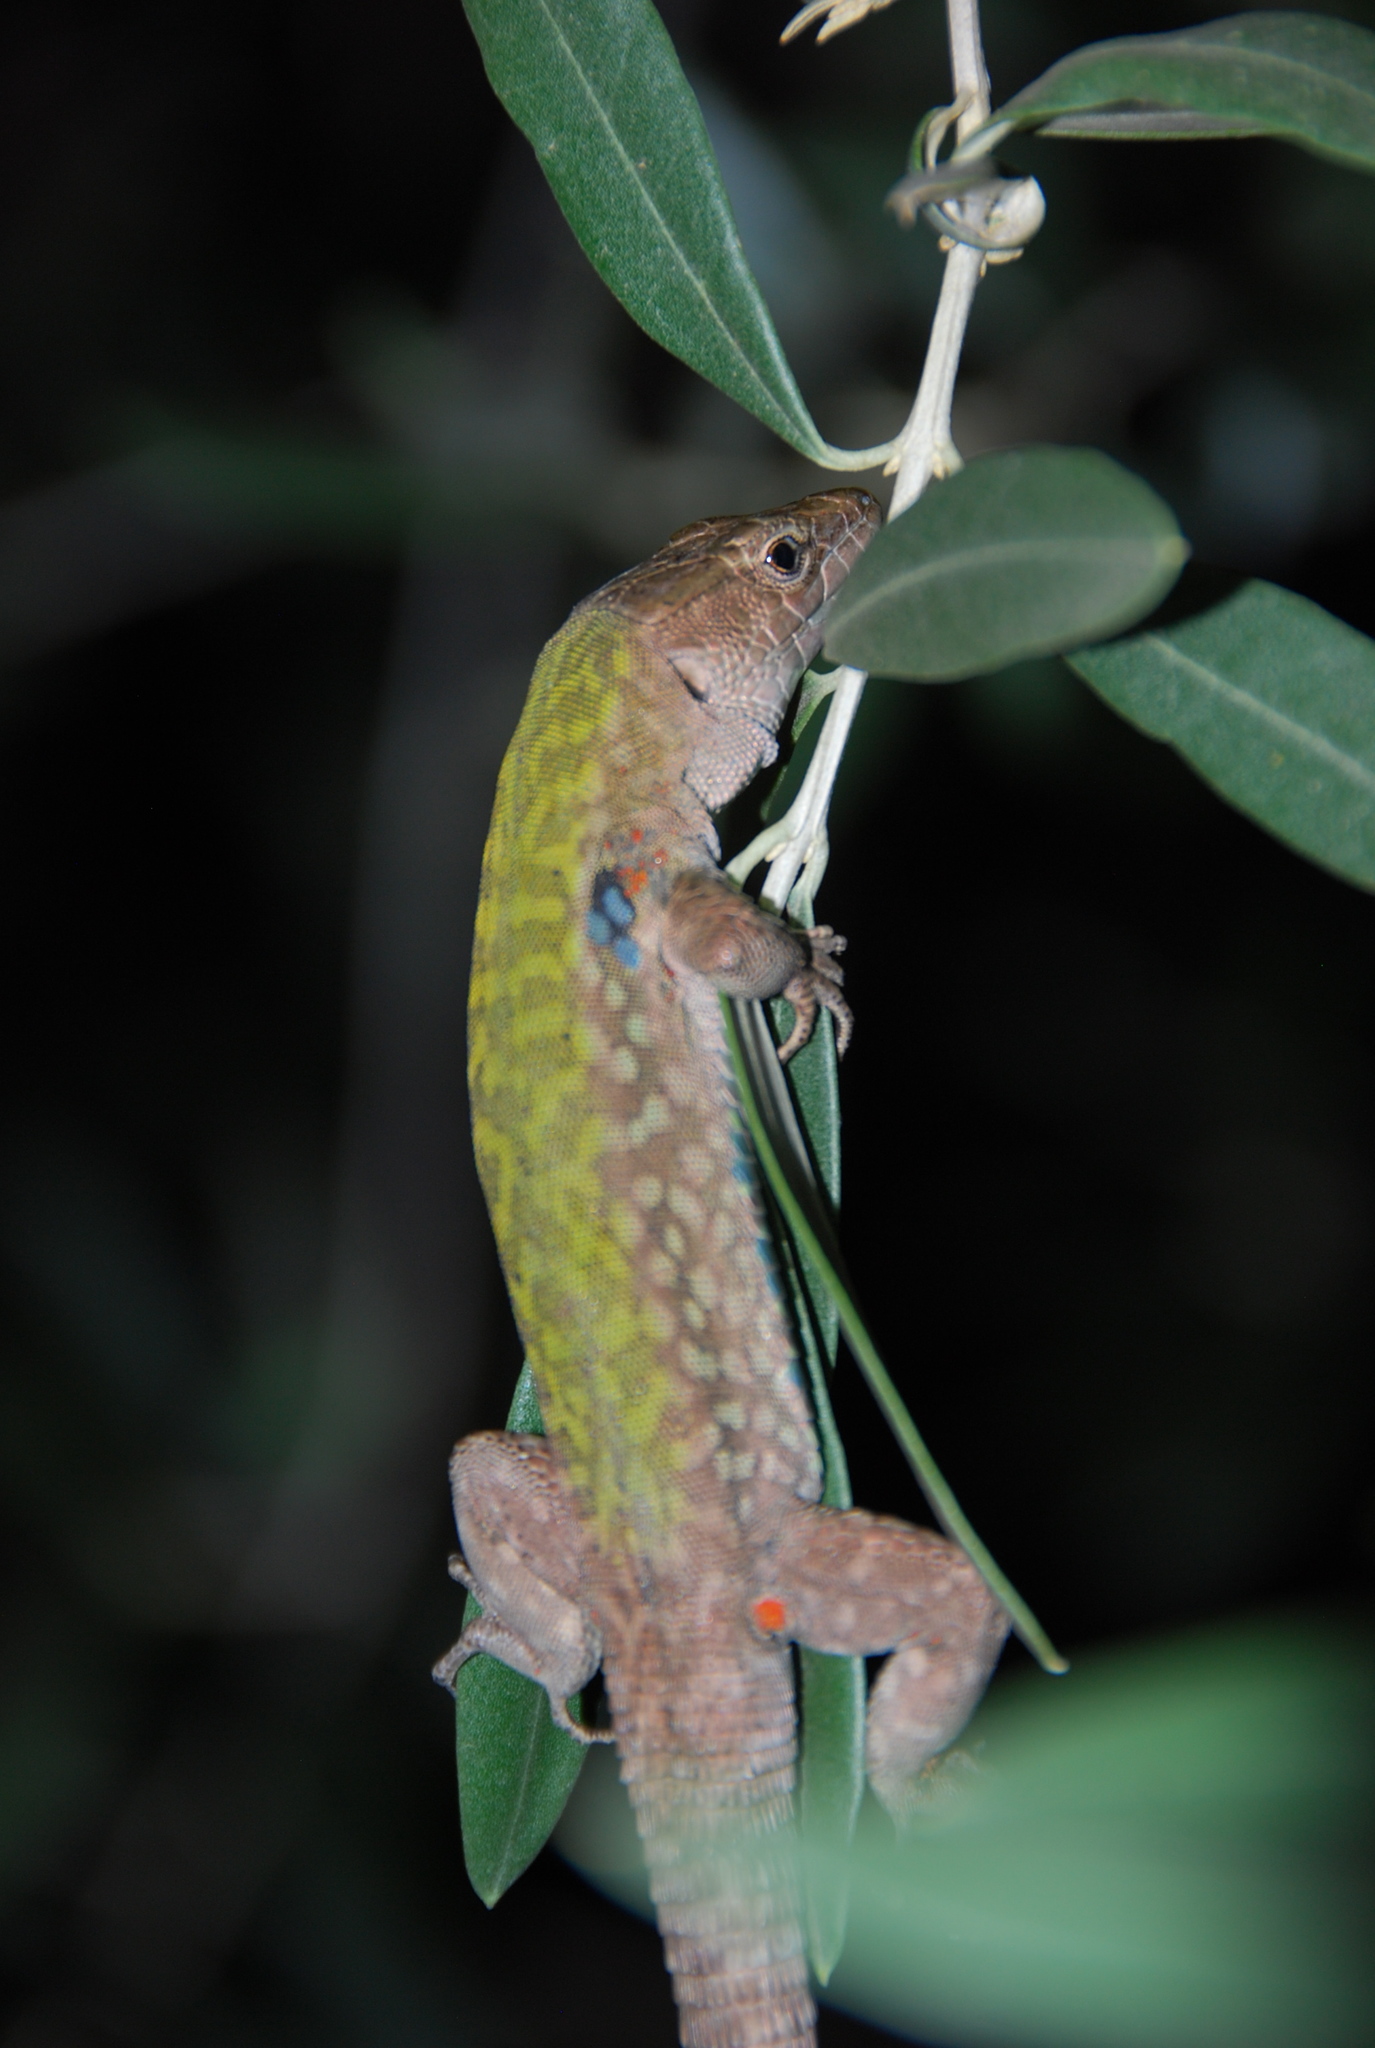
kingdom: Animalia
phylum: Chordata
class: Squamata
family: Lacertidae
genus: Podarcis
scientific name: Podarcis siculus
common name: Italian wall lizard
